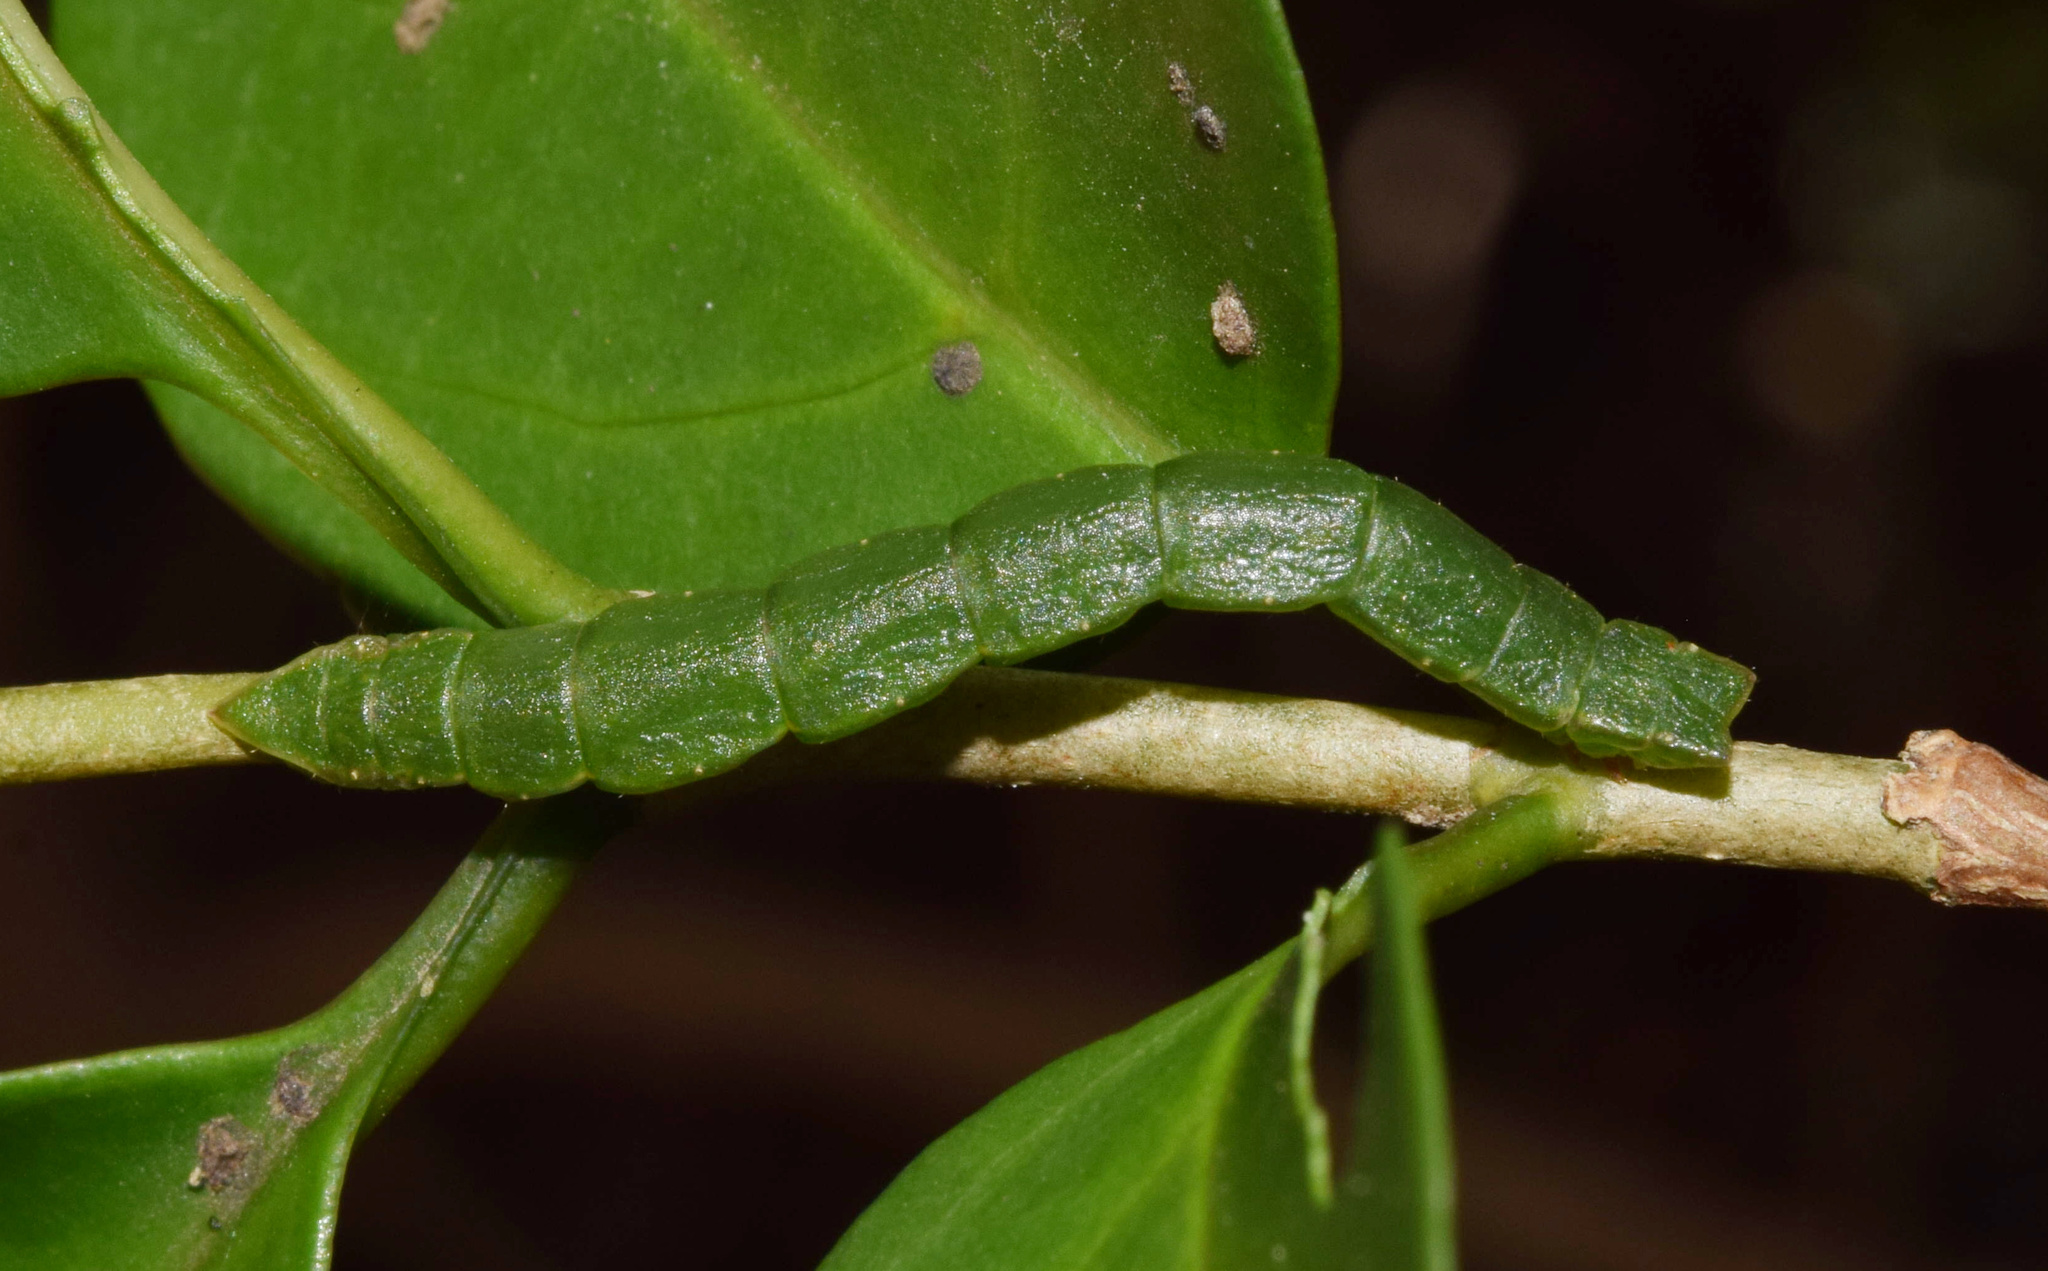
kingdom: Animalia
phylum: Arthropoda
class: Insecta
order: Lepidoptera
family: Geometridae
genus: Heterorachis
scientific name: Heterorachis devocata
